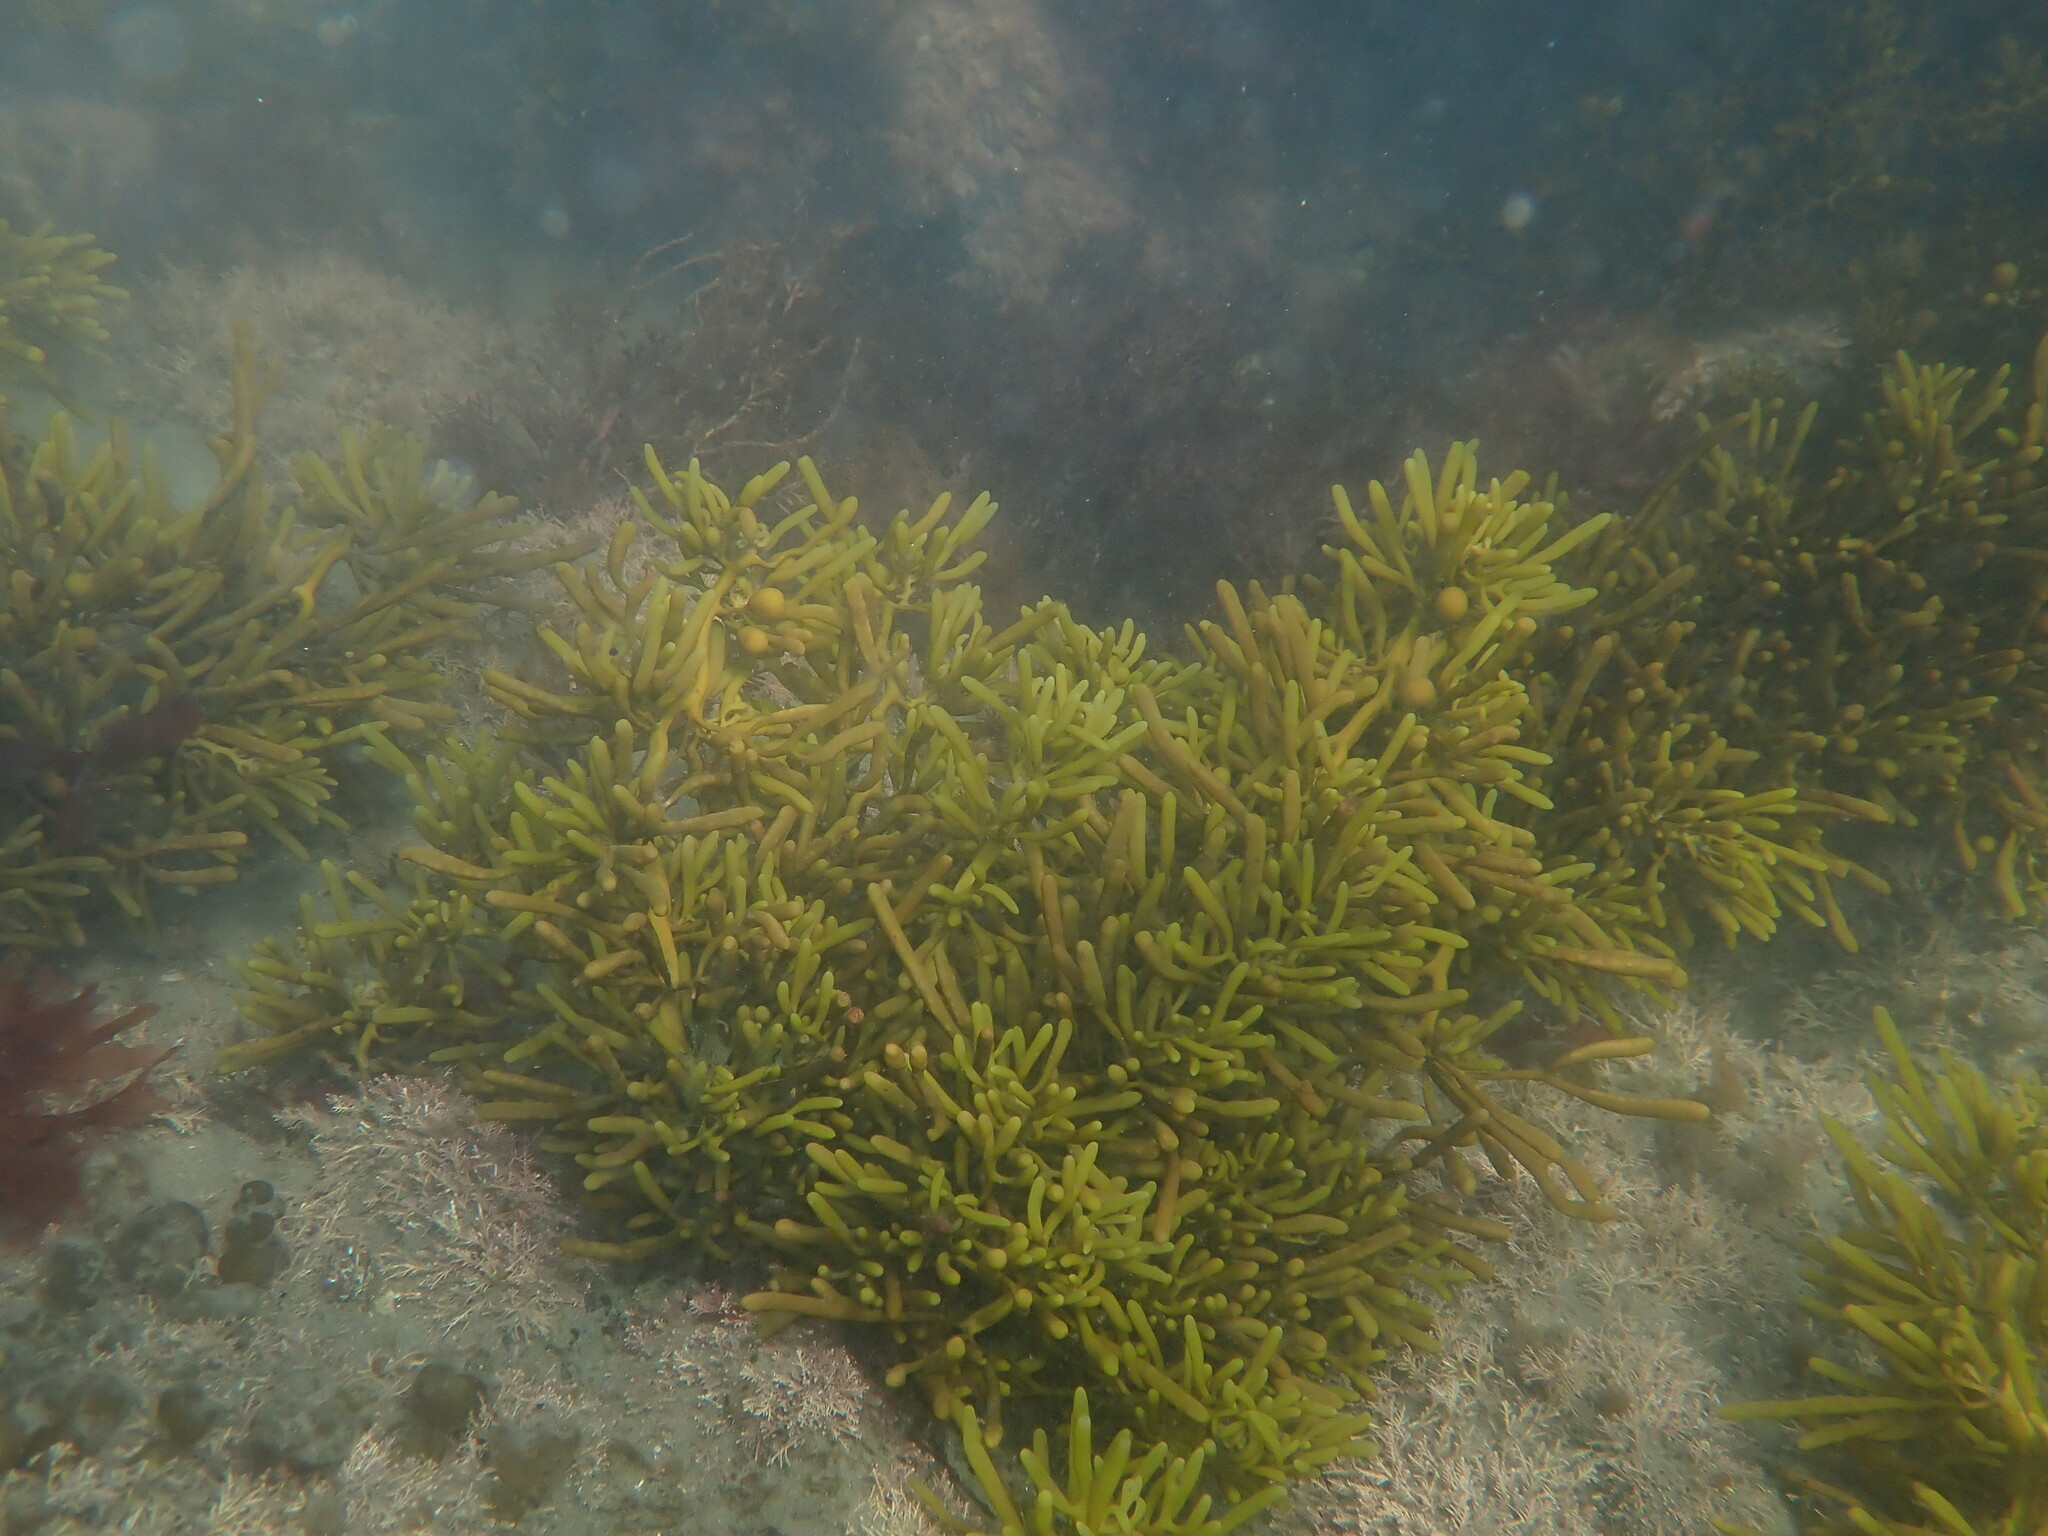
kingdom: Chromista
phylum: Ochrophyta
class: Phaeophyceae
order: Fucales
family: Sargassaceae
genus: Cystophora
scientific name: Cystophora torulosa
